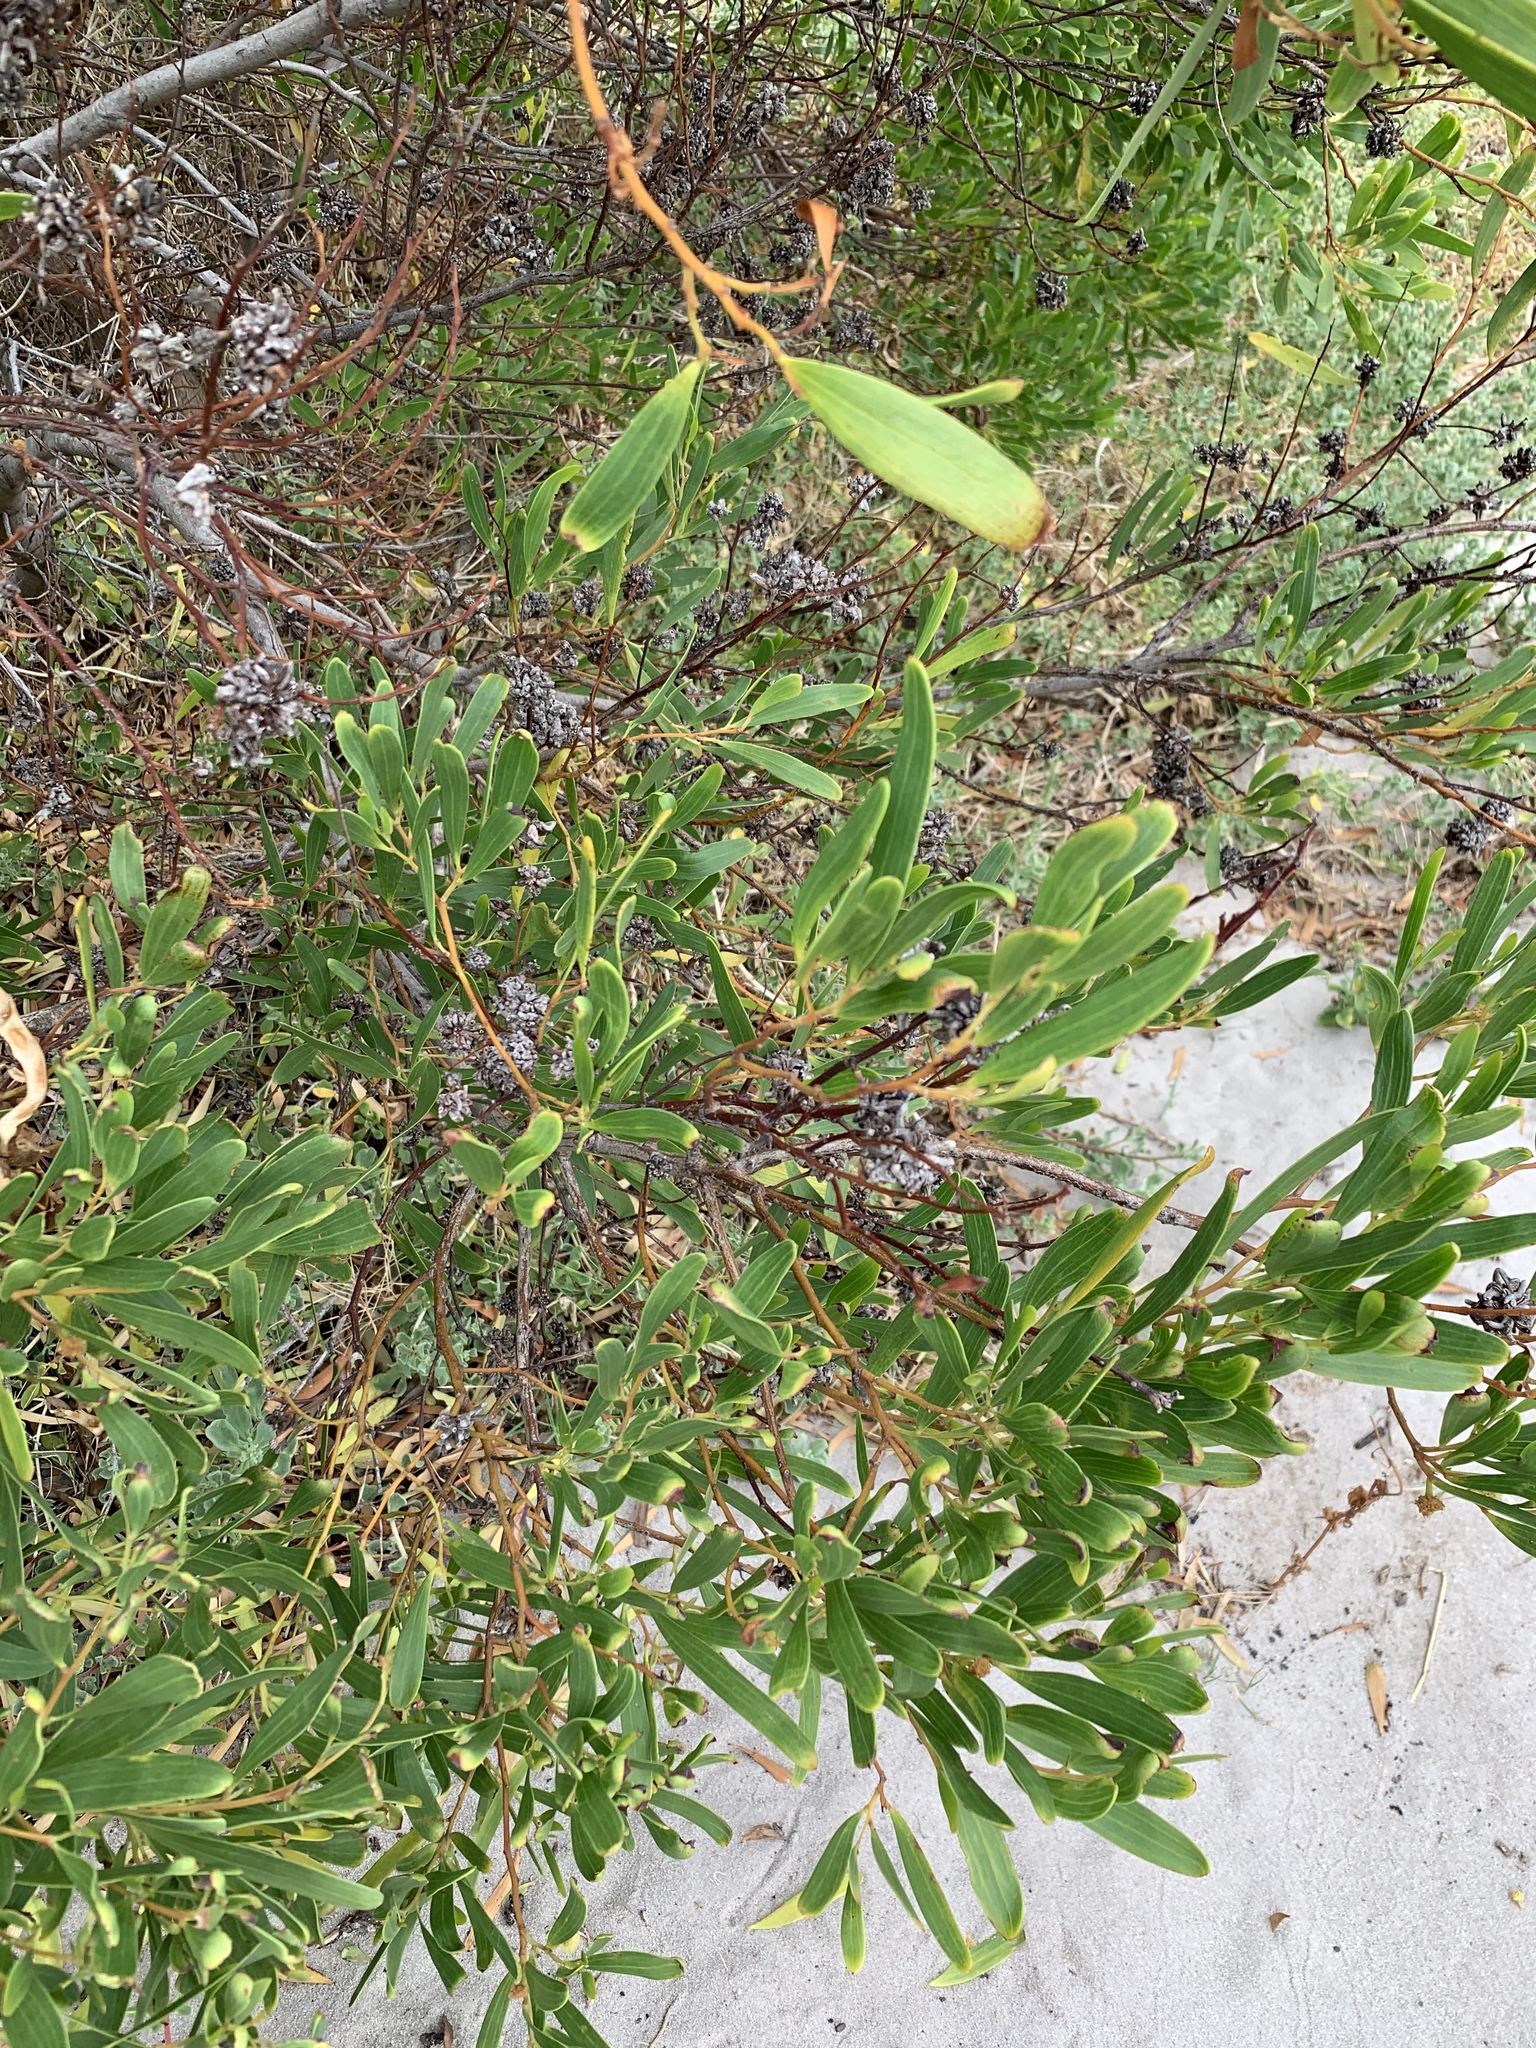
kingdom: Plantae
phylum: Tracheophyta
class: Magnoliopsida
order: Fabales
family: Fabaceae
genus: Acacia
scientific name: Acacia cyclops
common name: Coastal wattle
